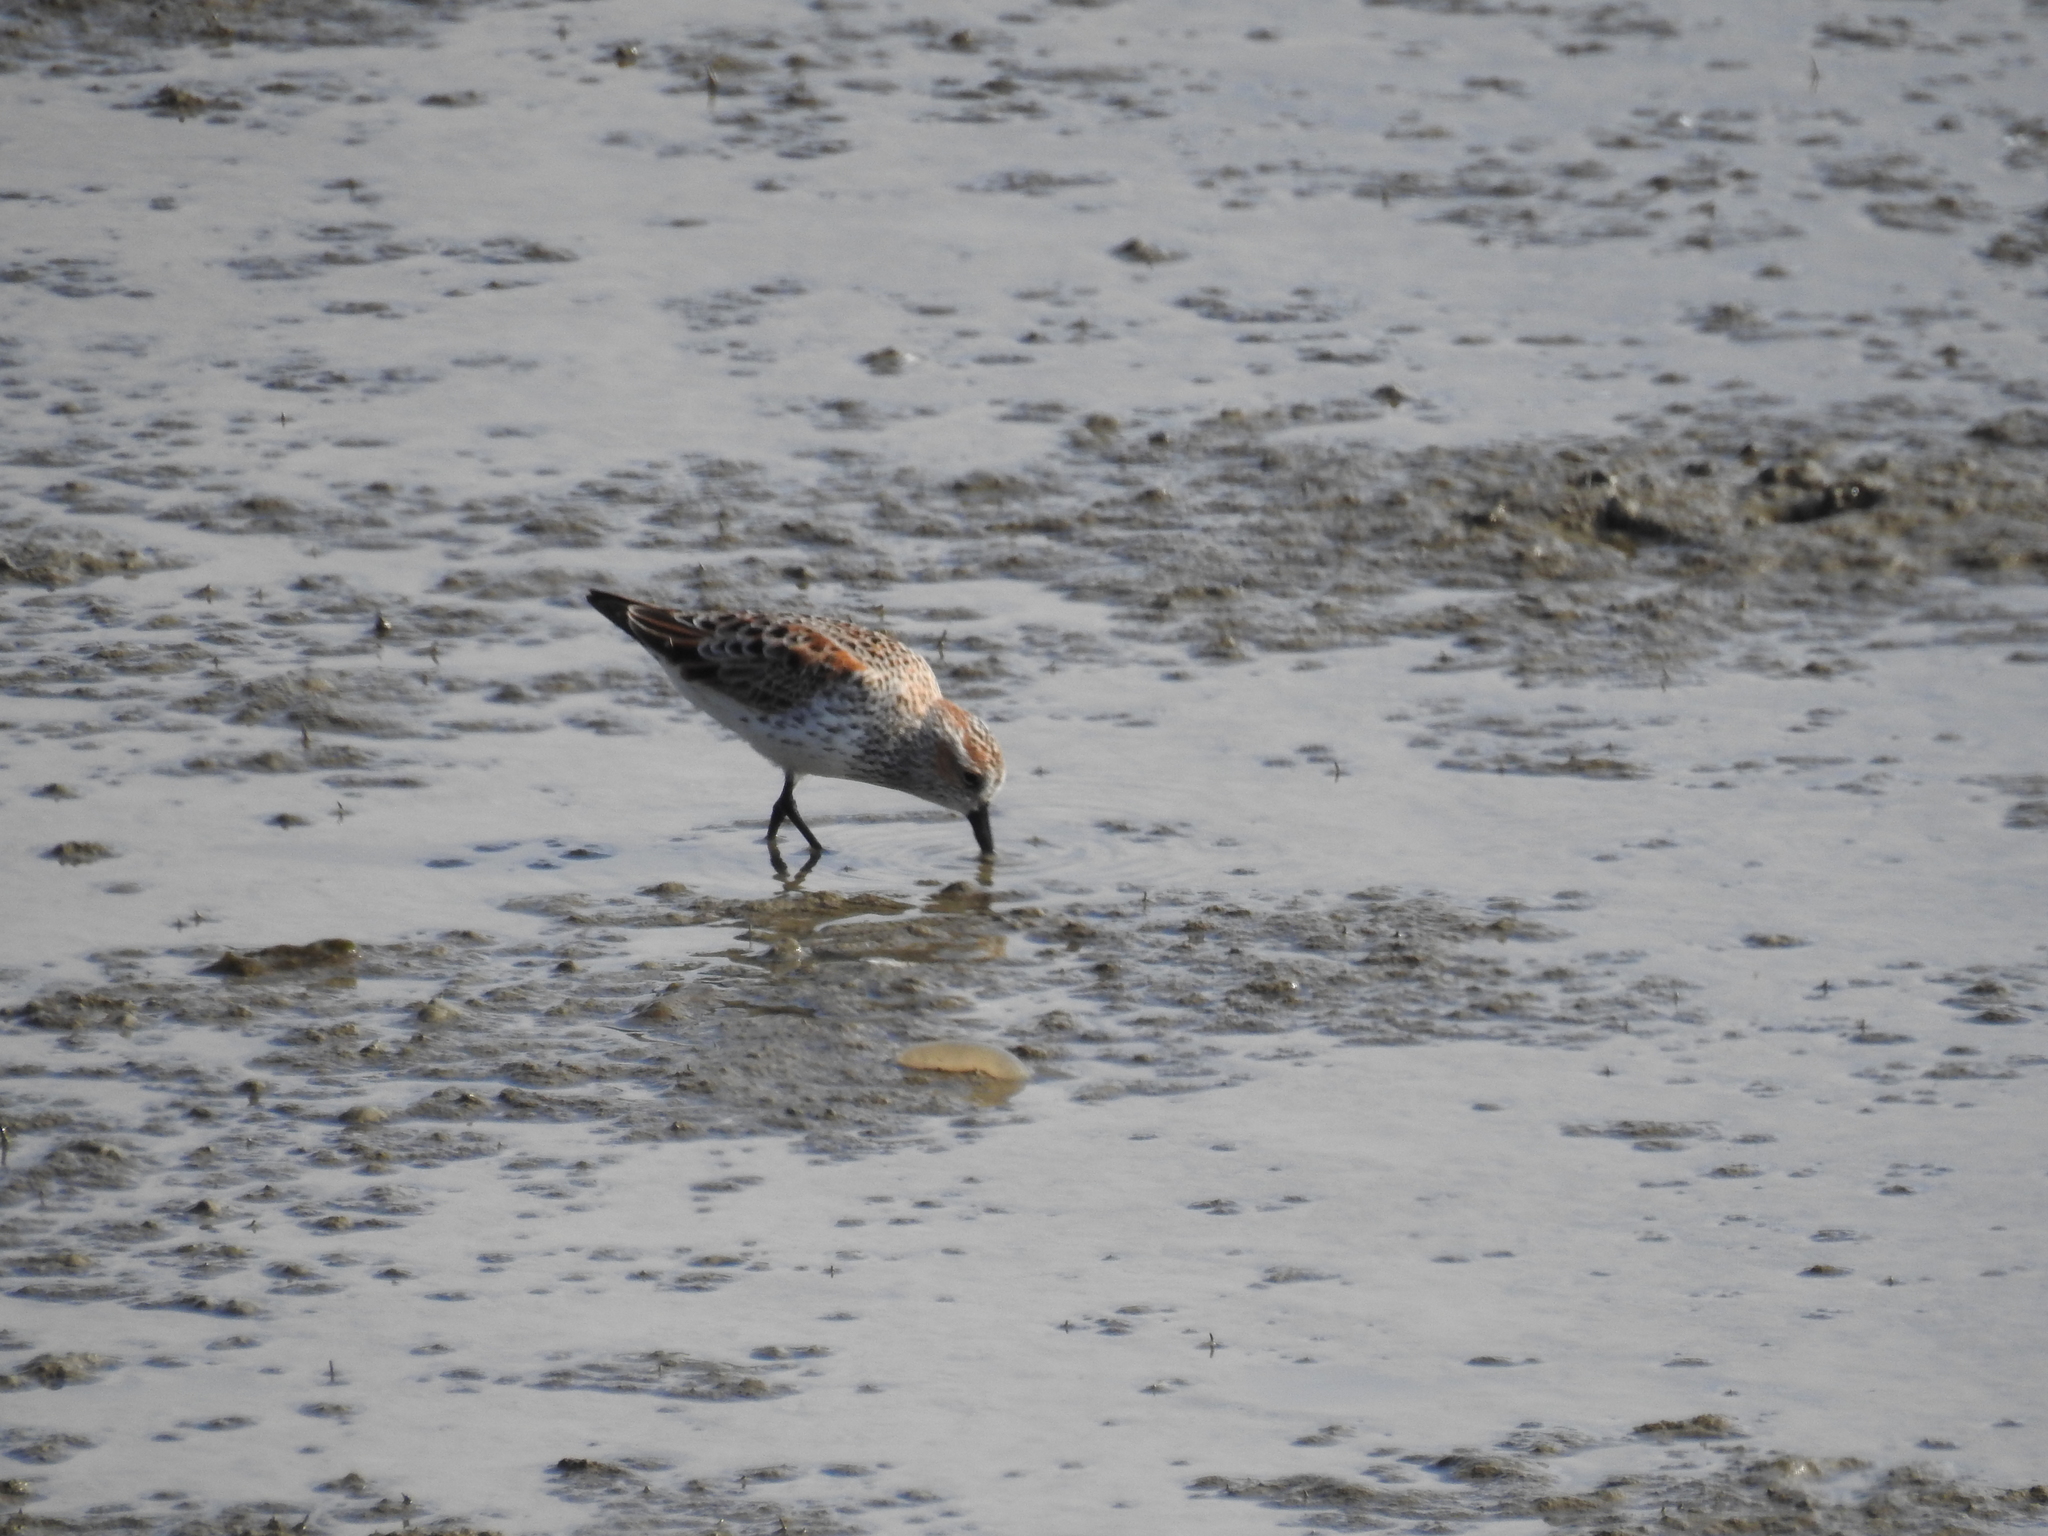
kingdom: Animalia
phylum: Chordata
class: Aves
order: Charadriiformes
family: Scolopacidae
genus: Calidris
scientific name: Calidris mauri
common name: Western sandpiper
